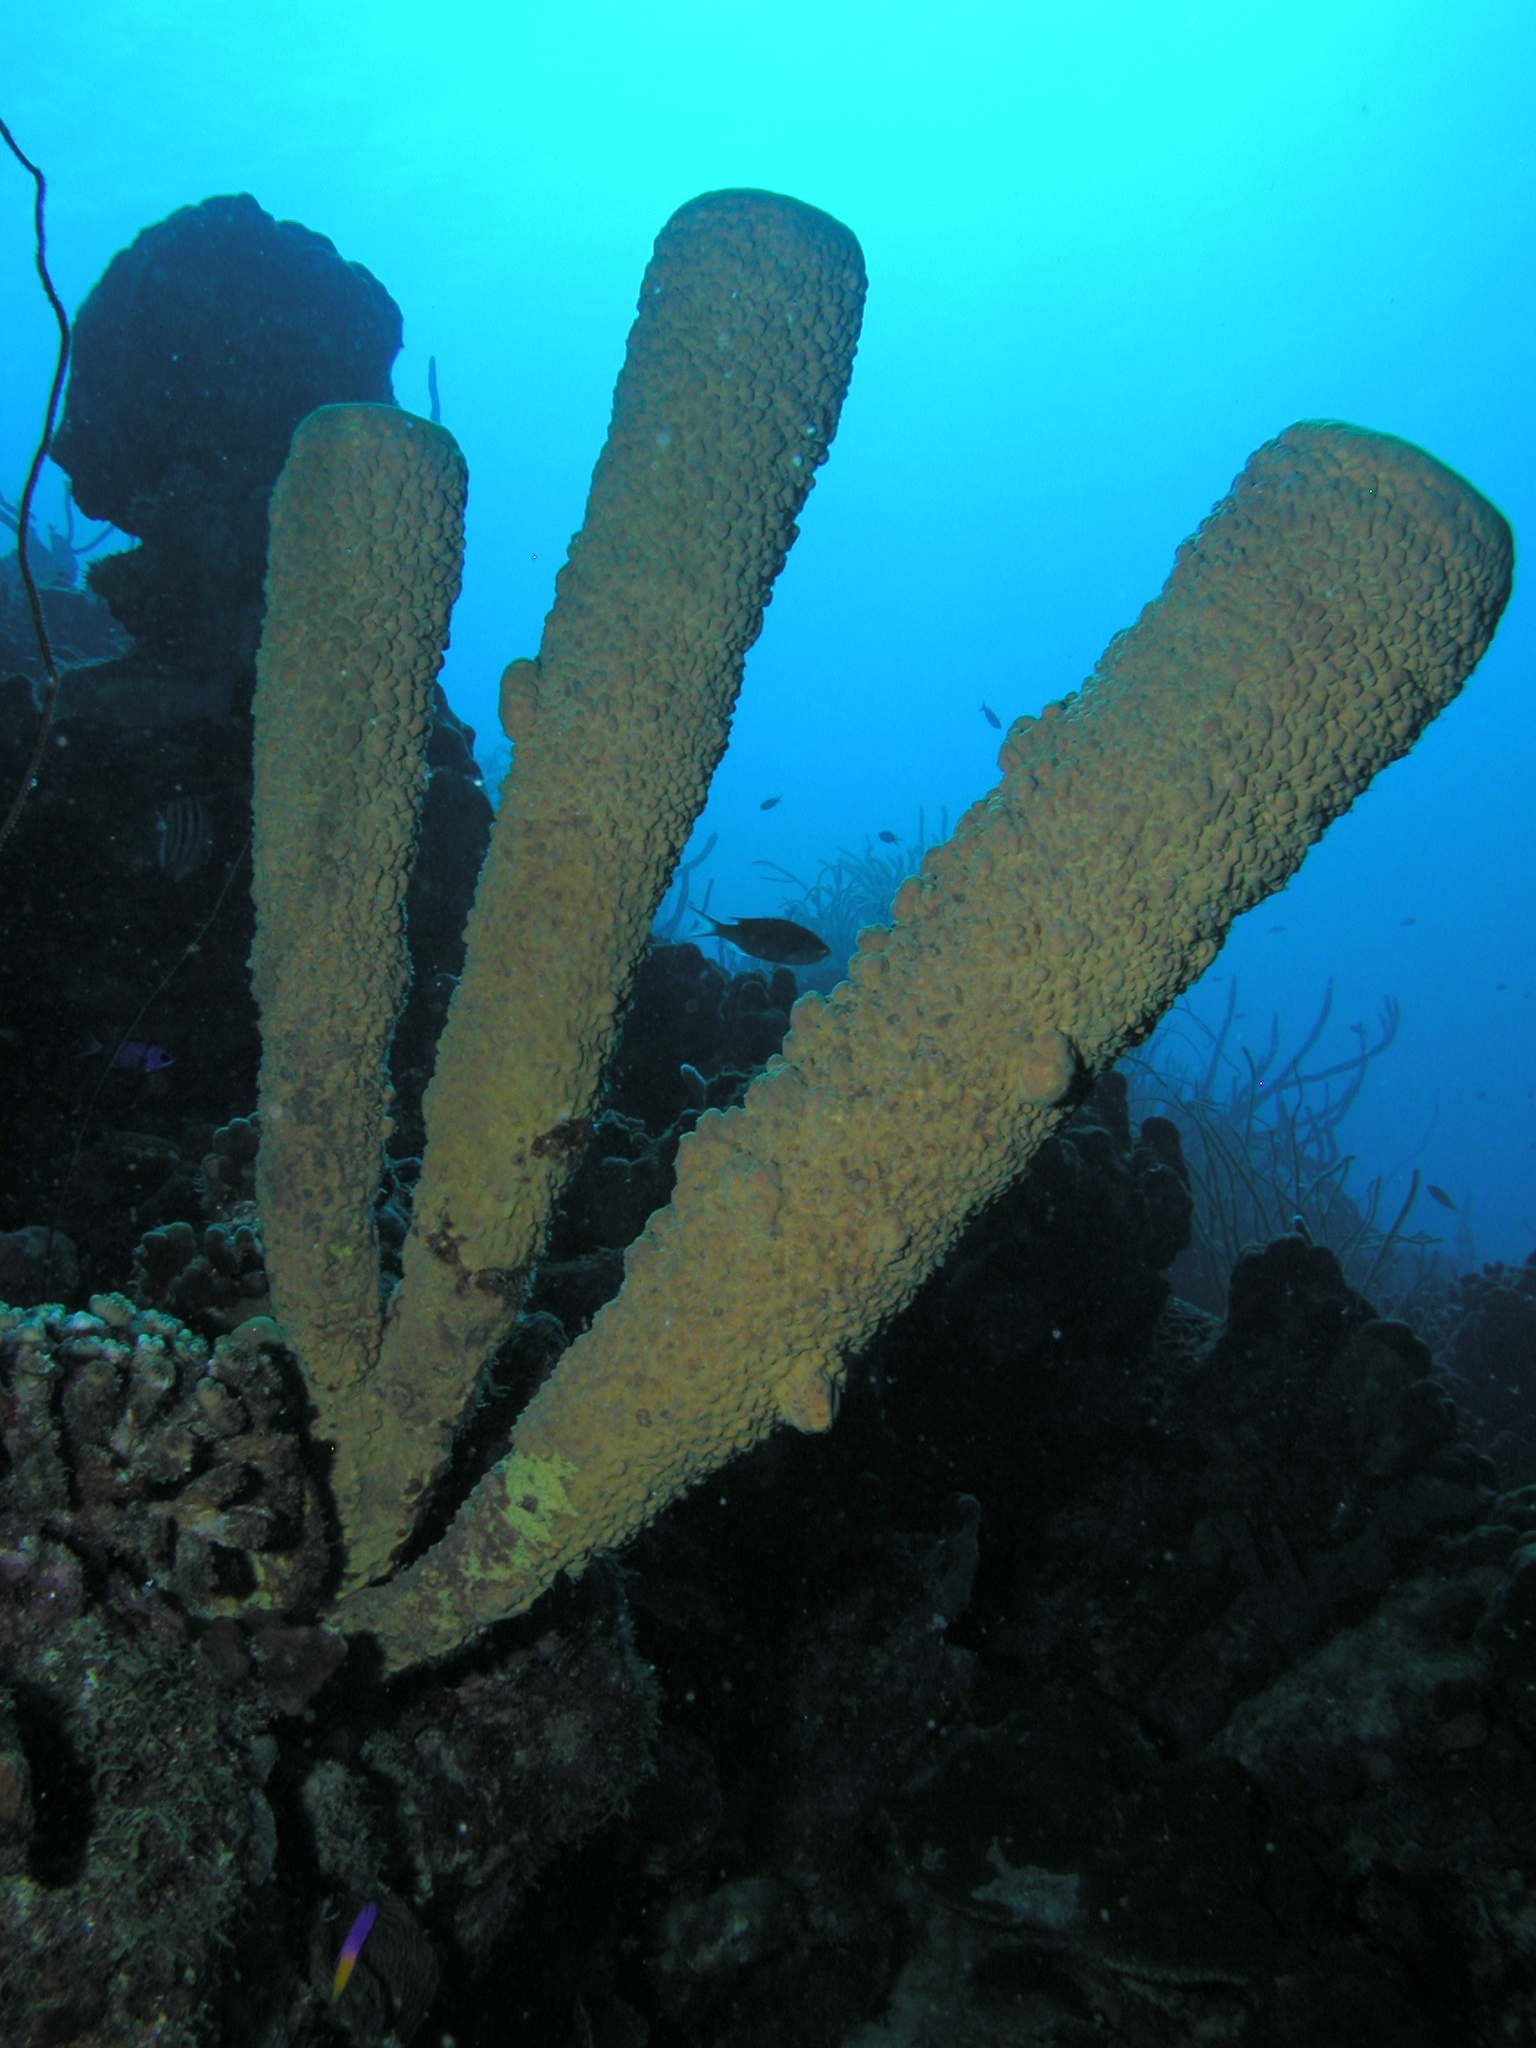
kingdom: Animalia
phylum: Porifera
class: Demospongiae
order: Verongiida
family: Aplysinidae
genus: Aplysina
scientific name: Aplysina archeri
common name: Stove-pipe sponge
